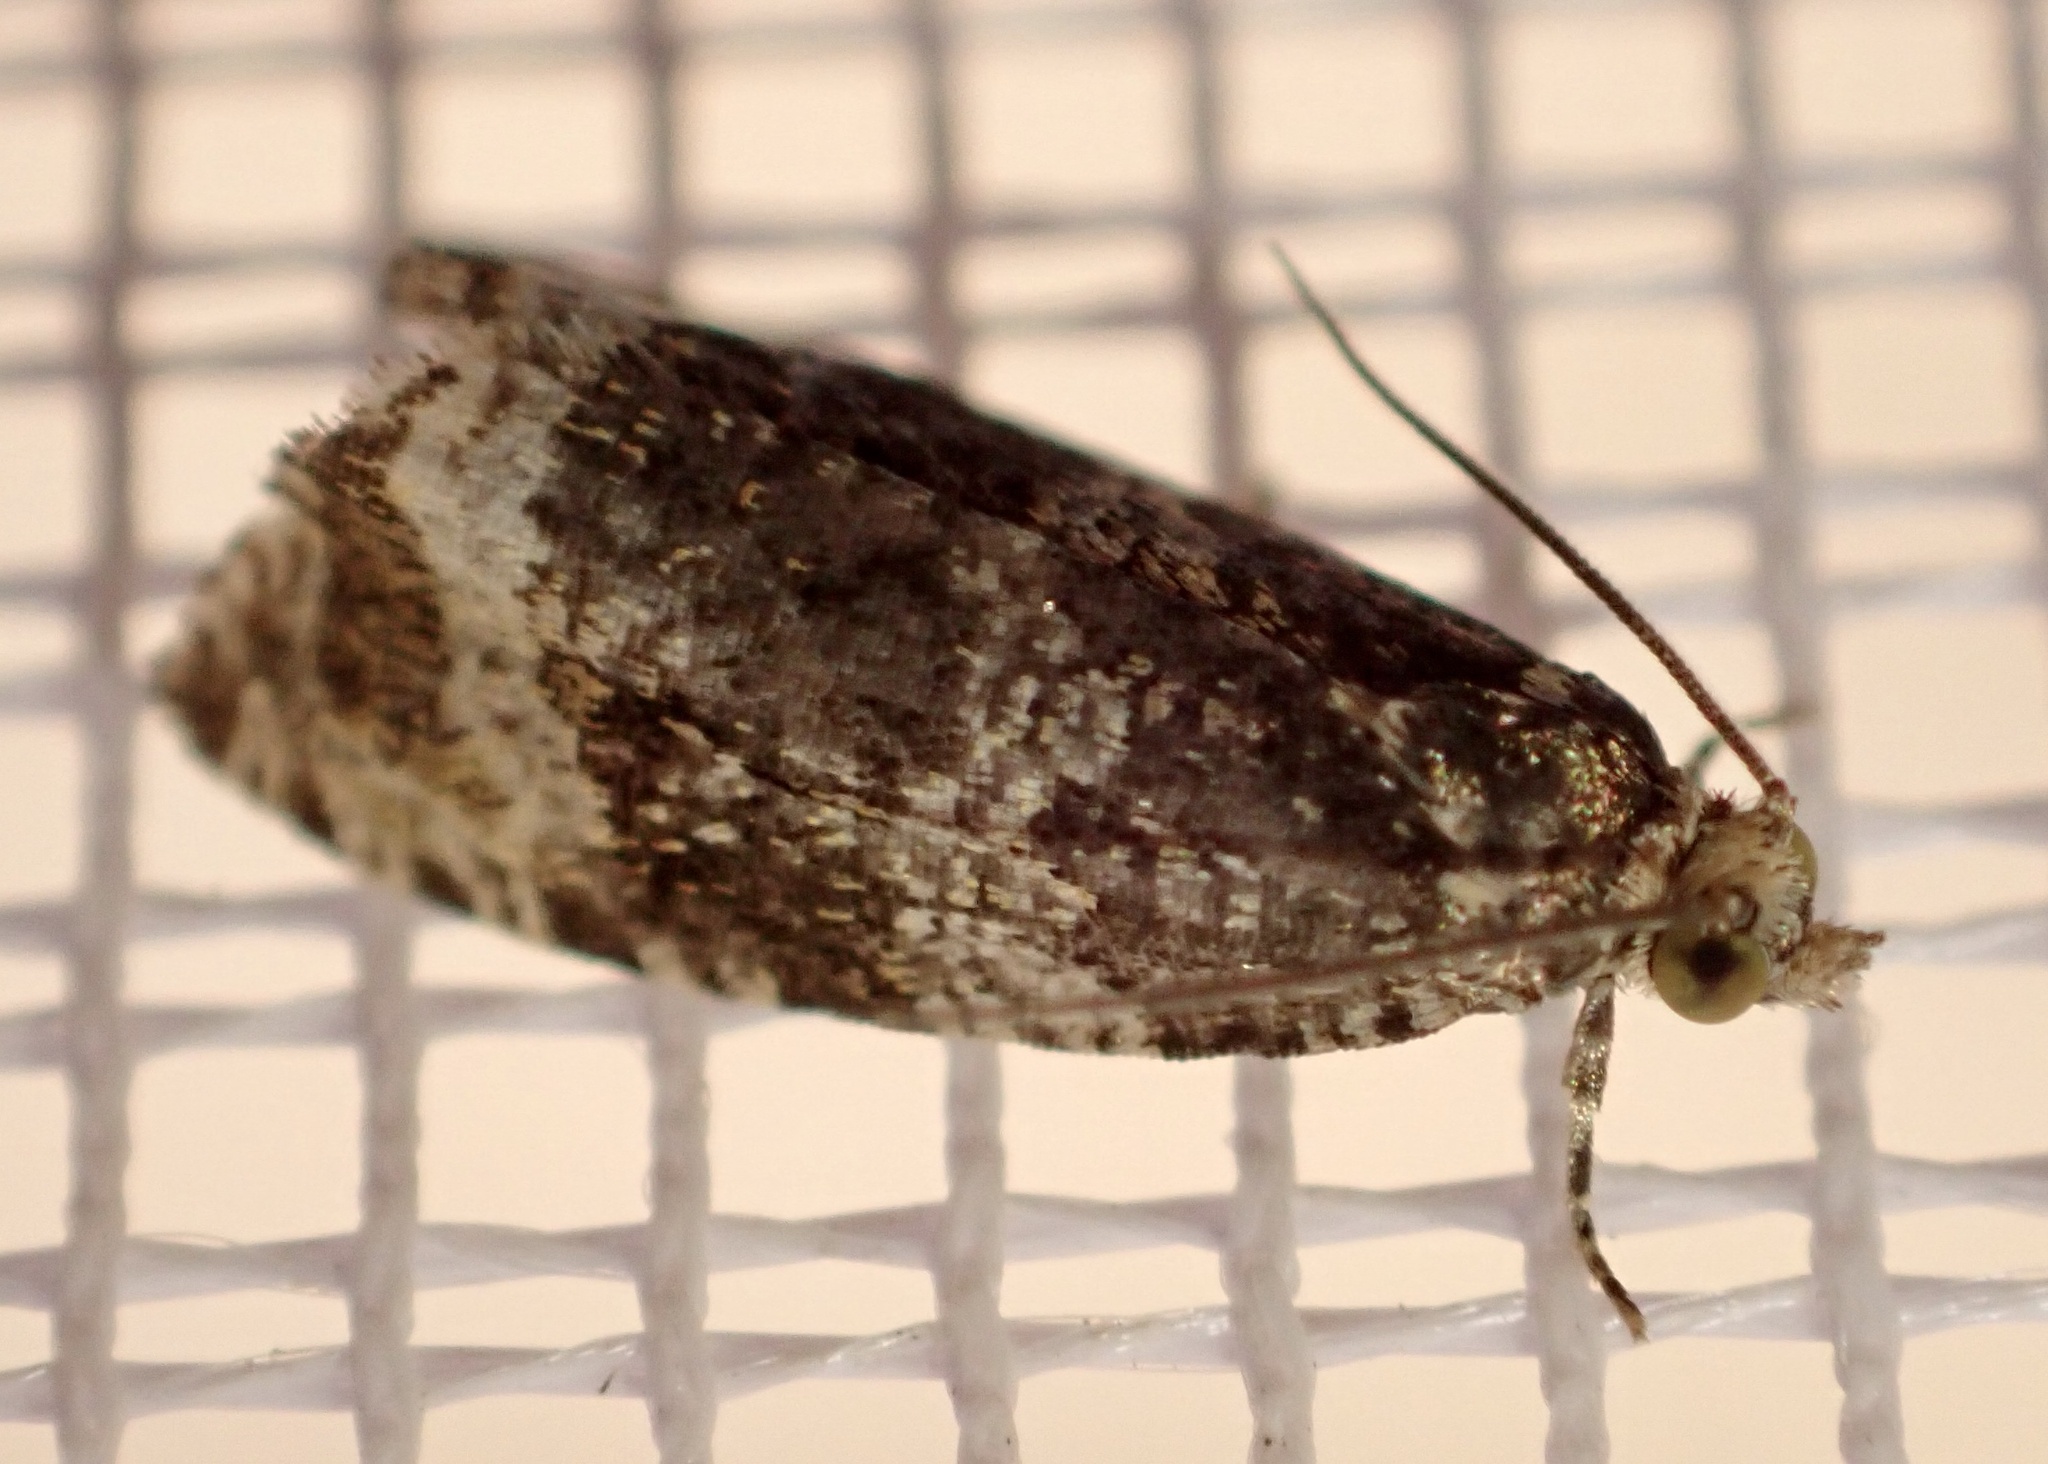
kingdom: Animalia
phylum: Arthropoda
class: Insecta
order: Lepidoptera
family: Tortricidae
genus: Syricoris
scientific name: Syricoris lacunana
